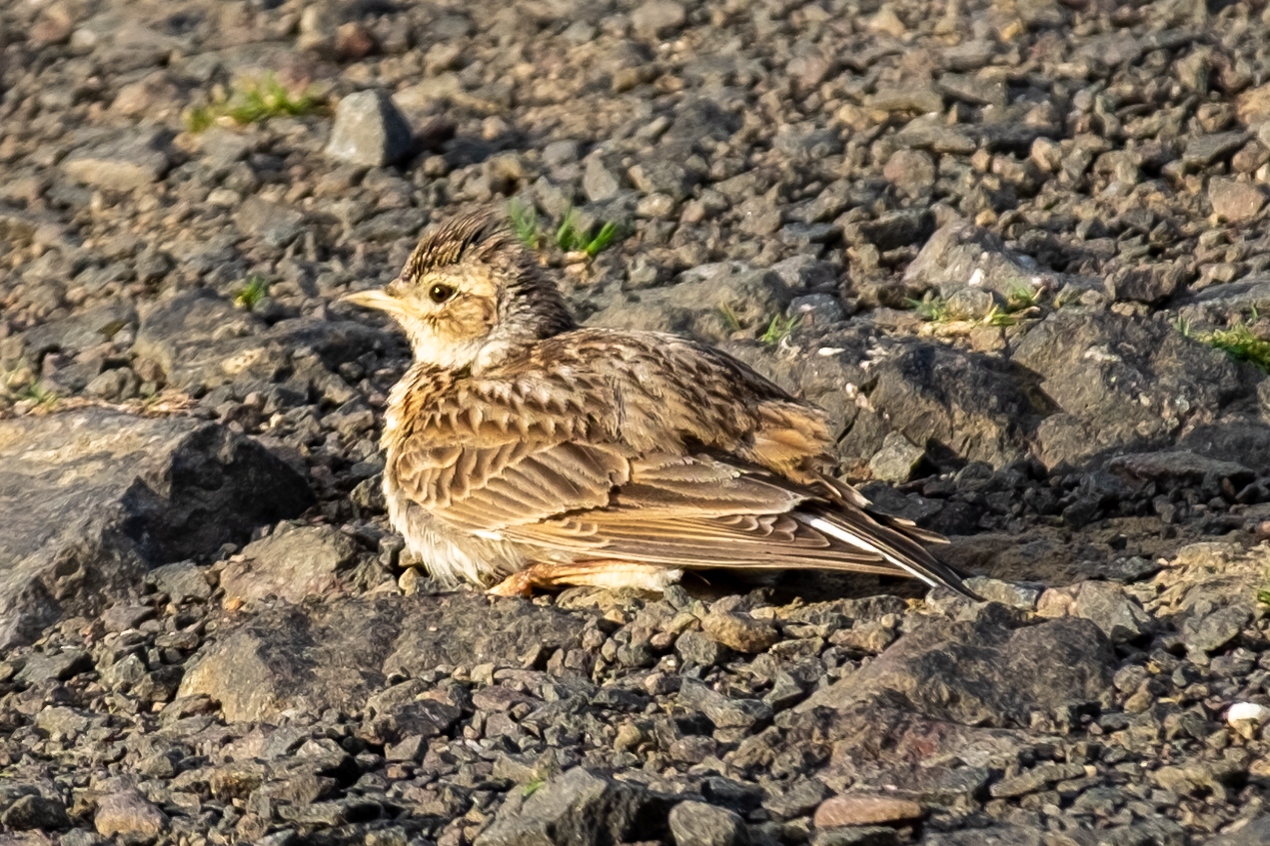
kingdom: Animalia
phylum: Chordata
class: Aves
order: Passeriformes
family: Alaudidae
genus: Alauda
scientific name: Alauda arvensis
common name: Eurasian skylark
